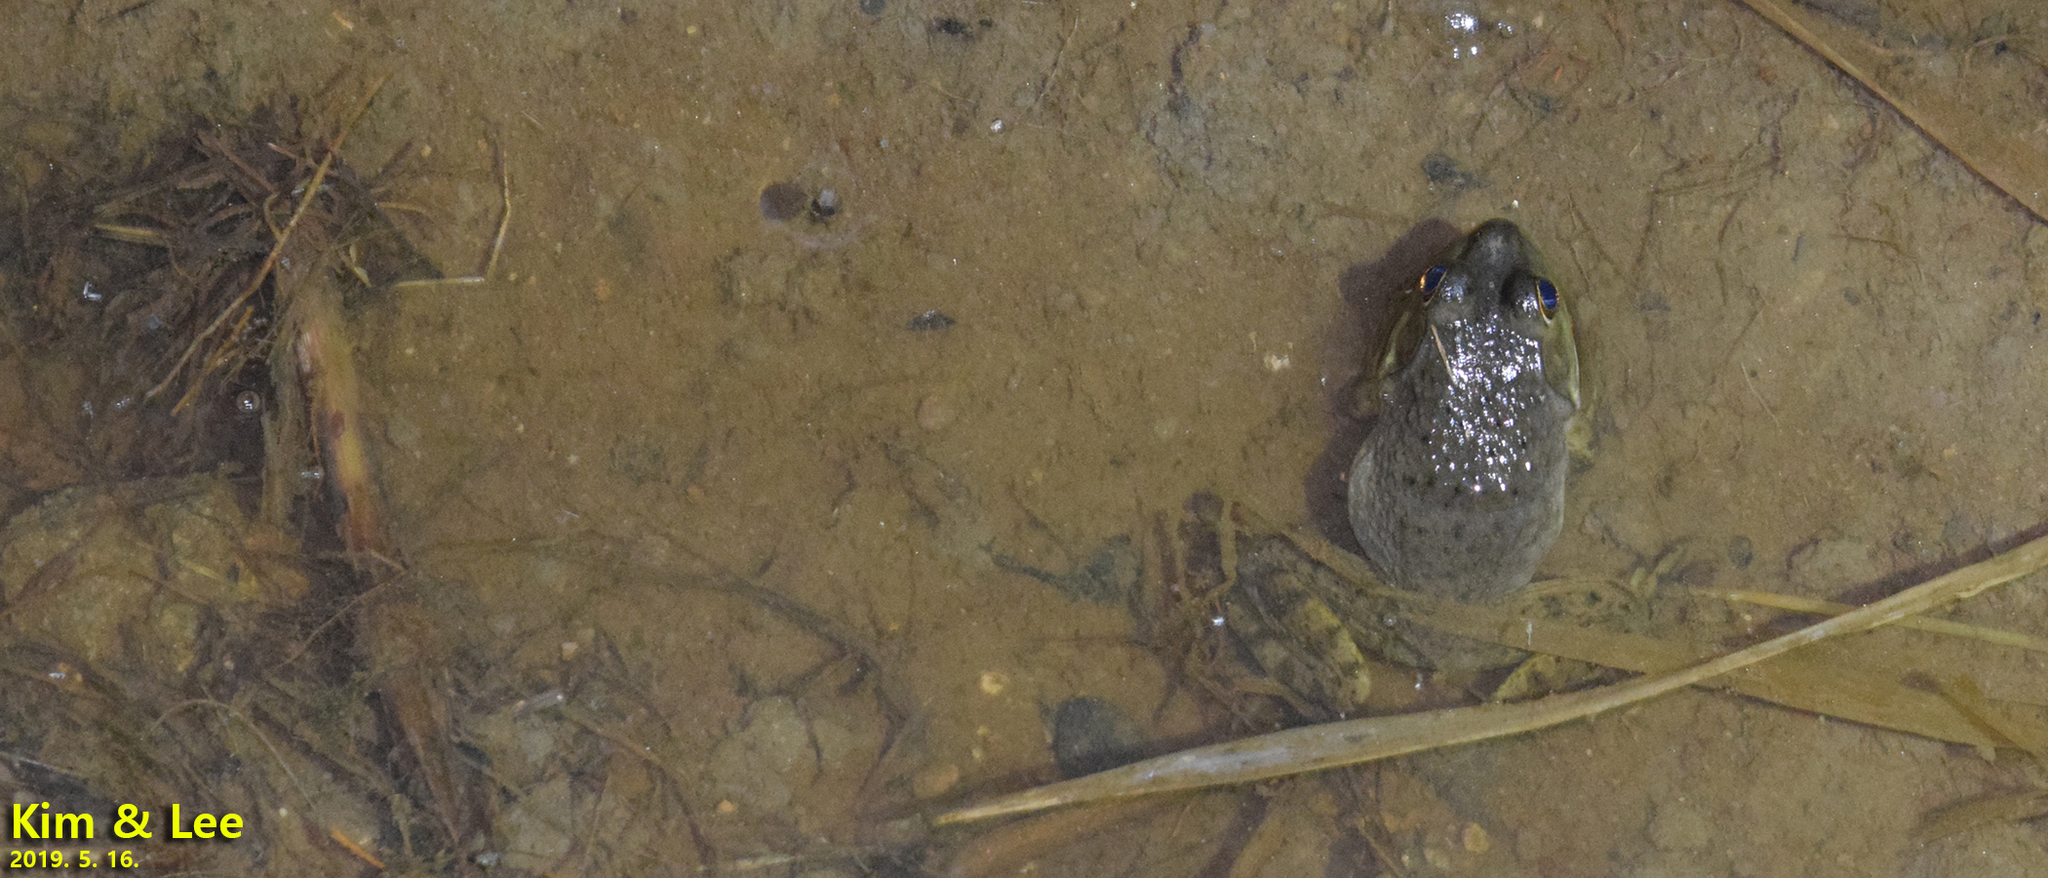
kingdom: Animalia
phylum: Chordata
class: Amphibia
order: Anura
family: Ranidae
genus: Lithobates
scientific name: Lithobates catesbeianus
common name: American bullfrog
